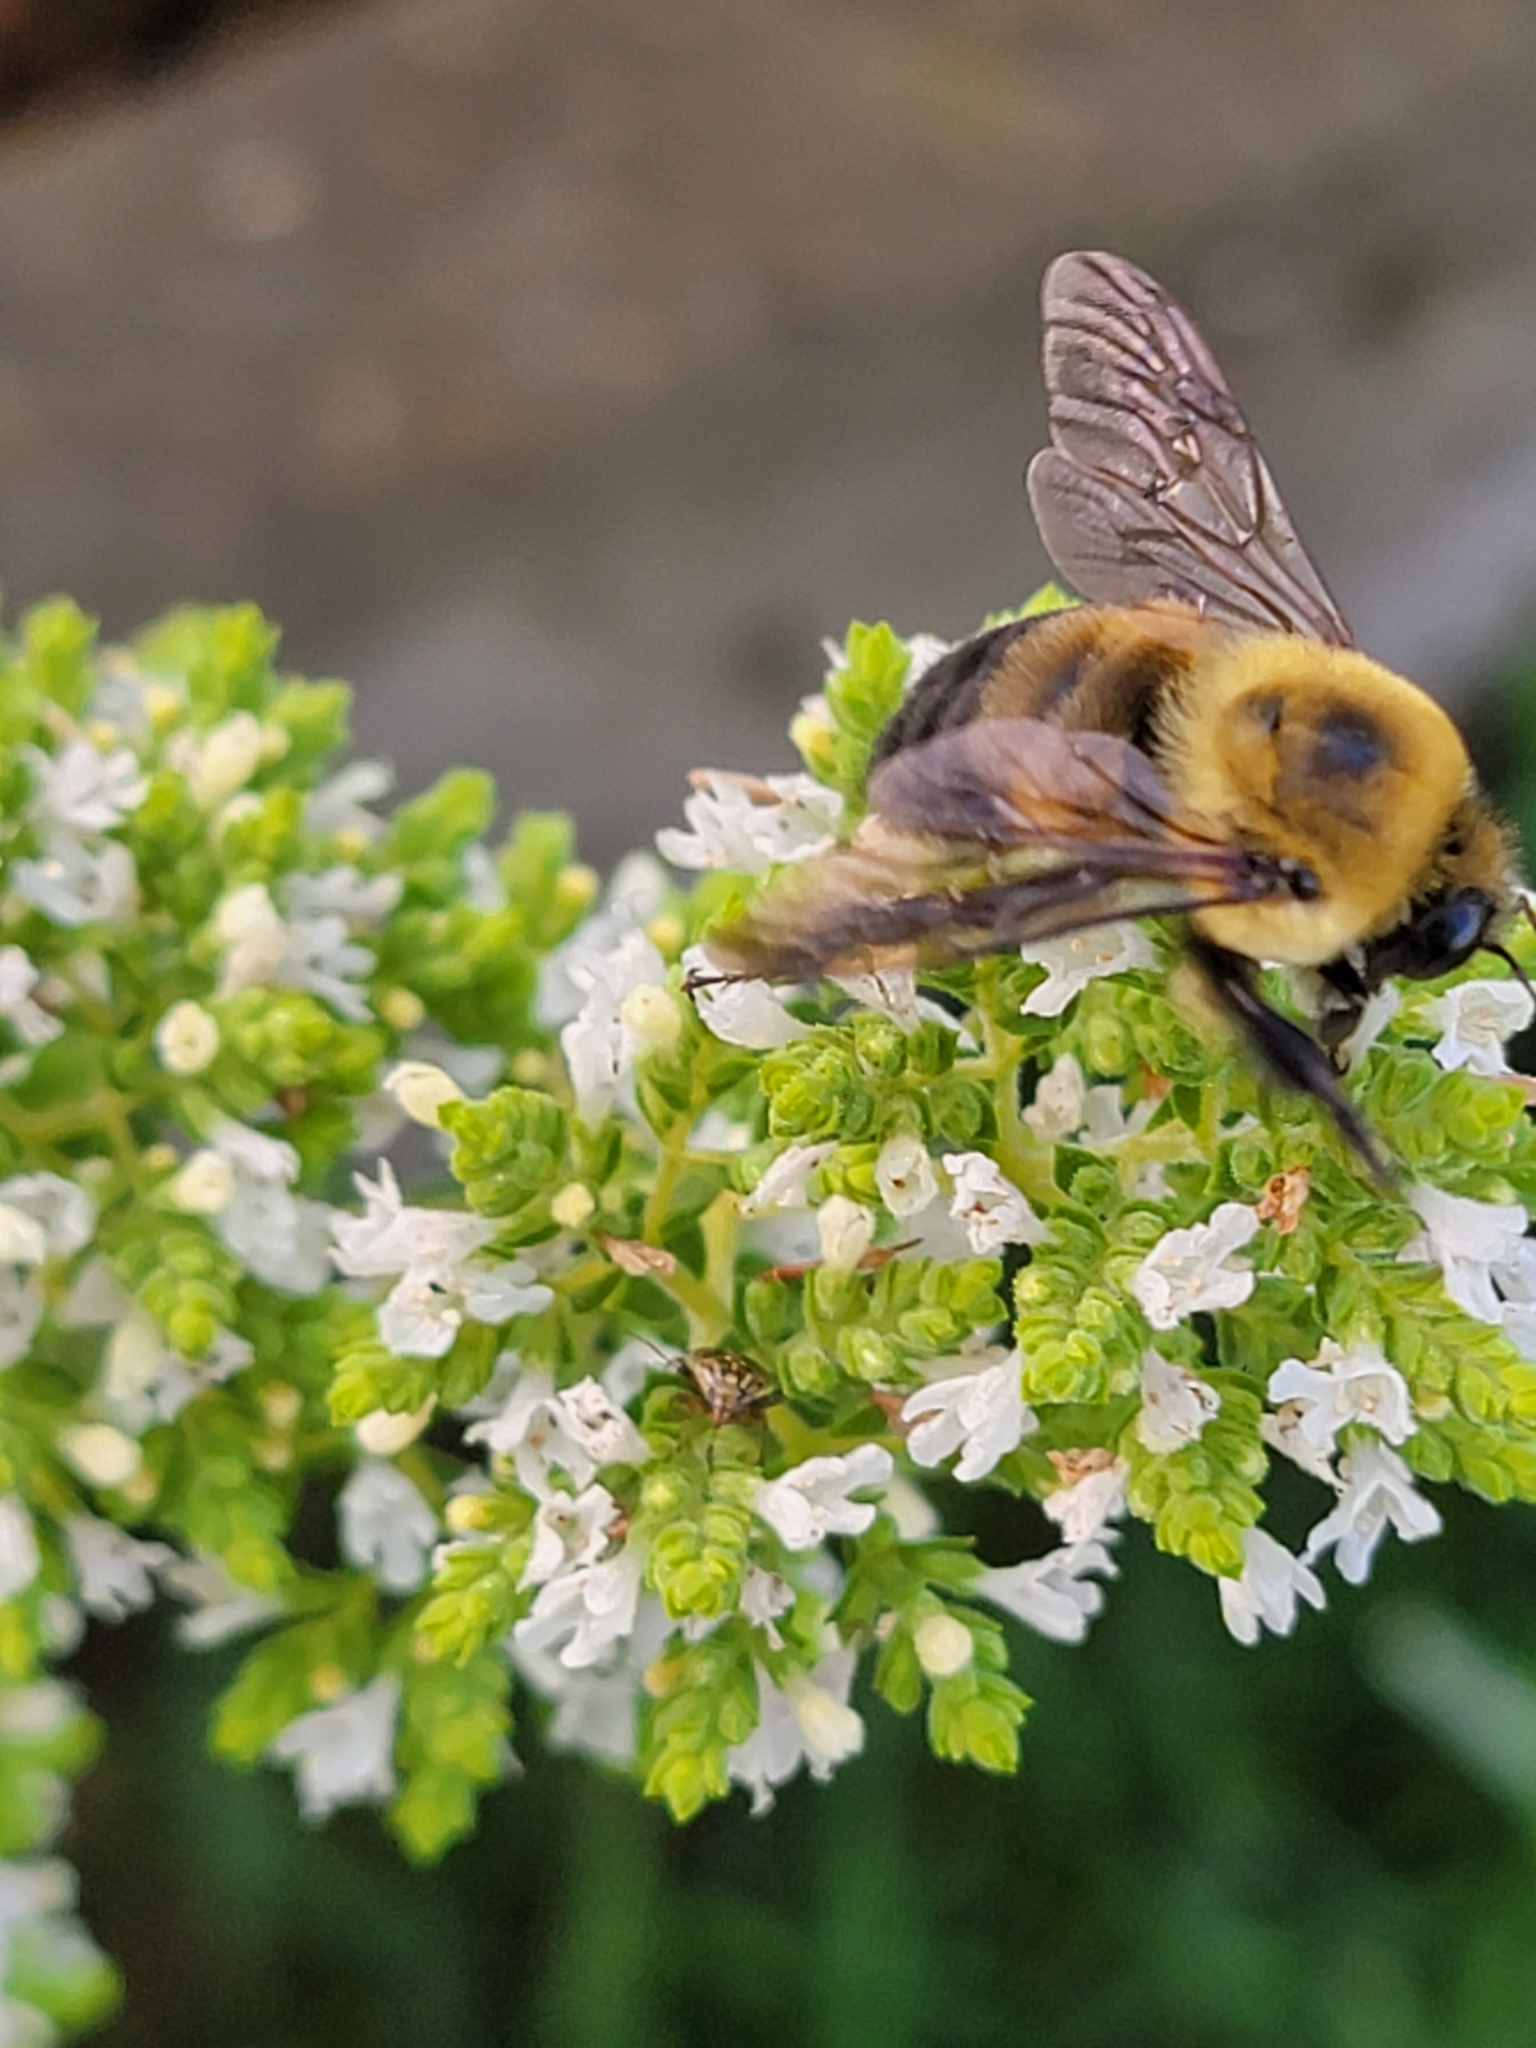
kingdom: Animalia
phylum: Arthropoda
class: Insecta
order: Hymenoptera
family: Apidae
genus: Bombus
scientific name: Bombus griseocollis
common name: Brown-belted bumble bee
